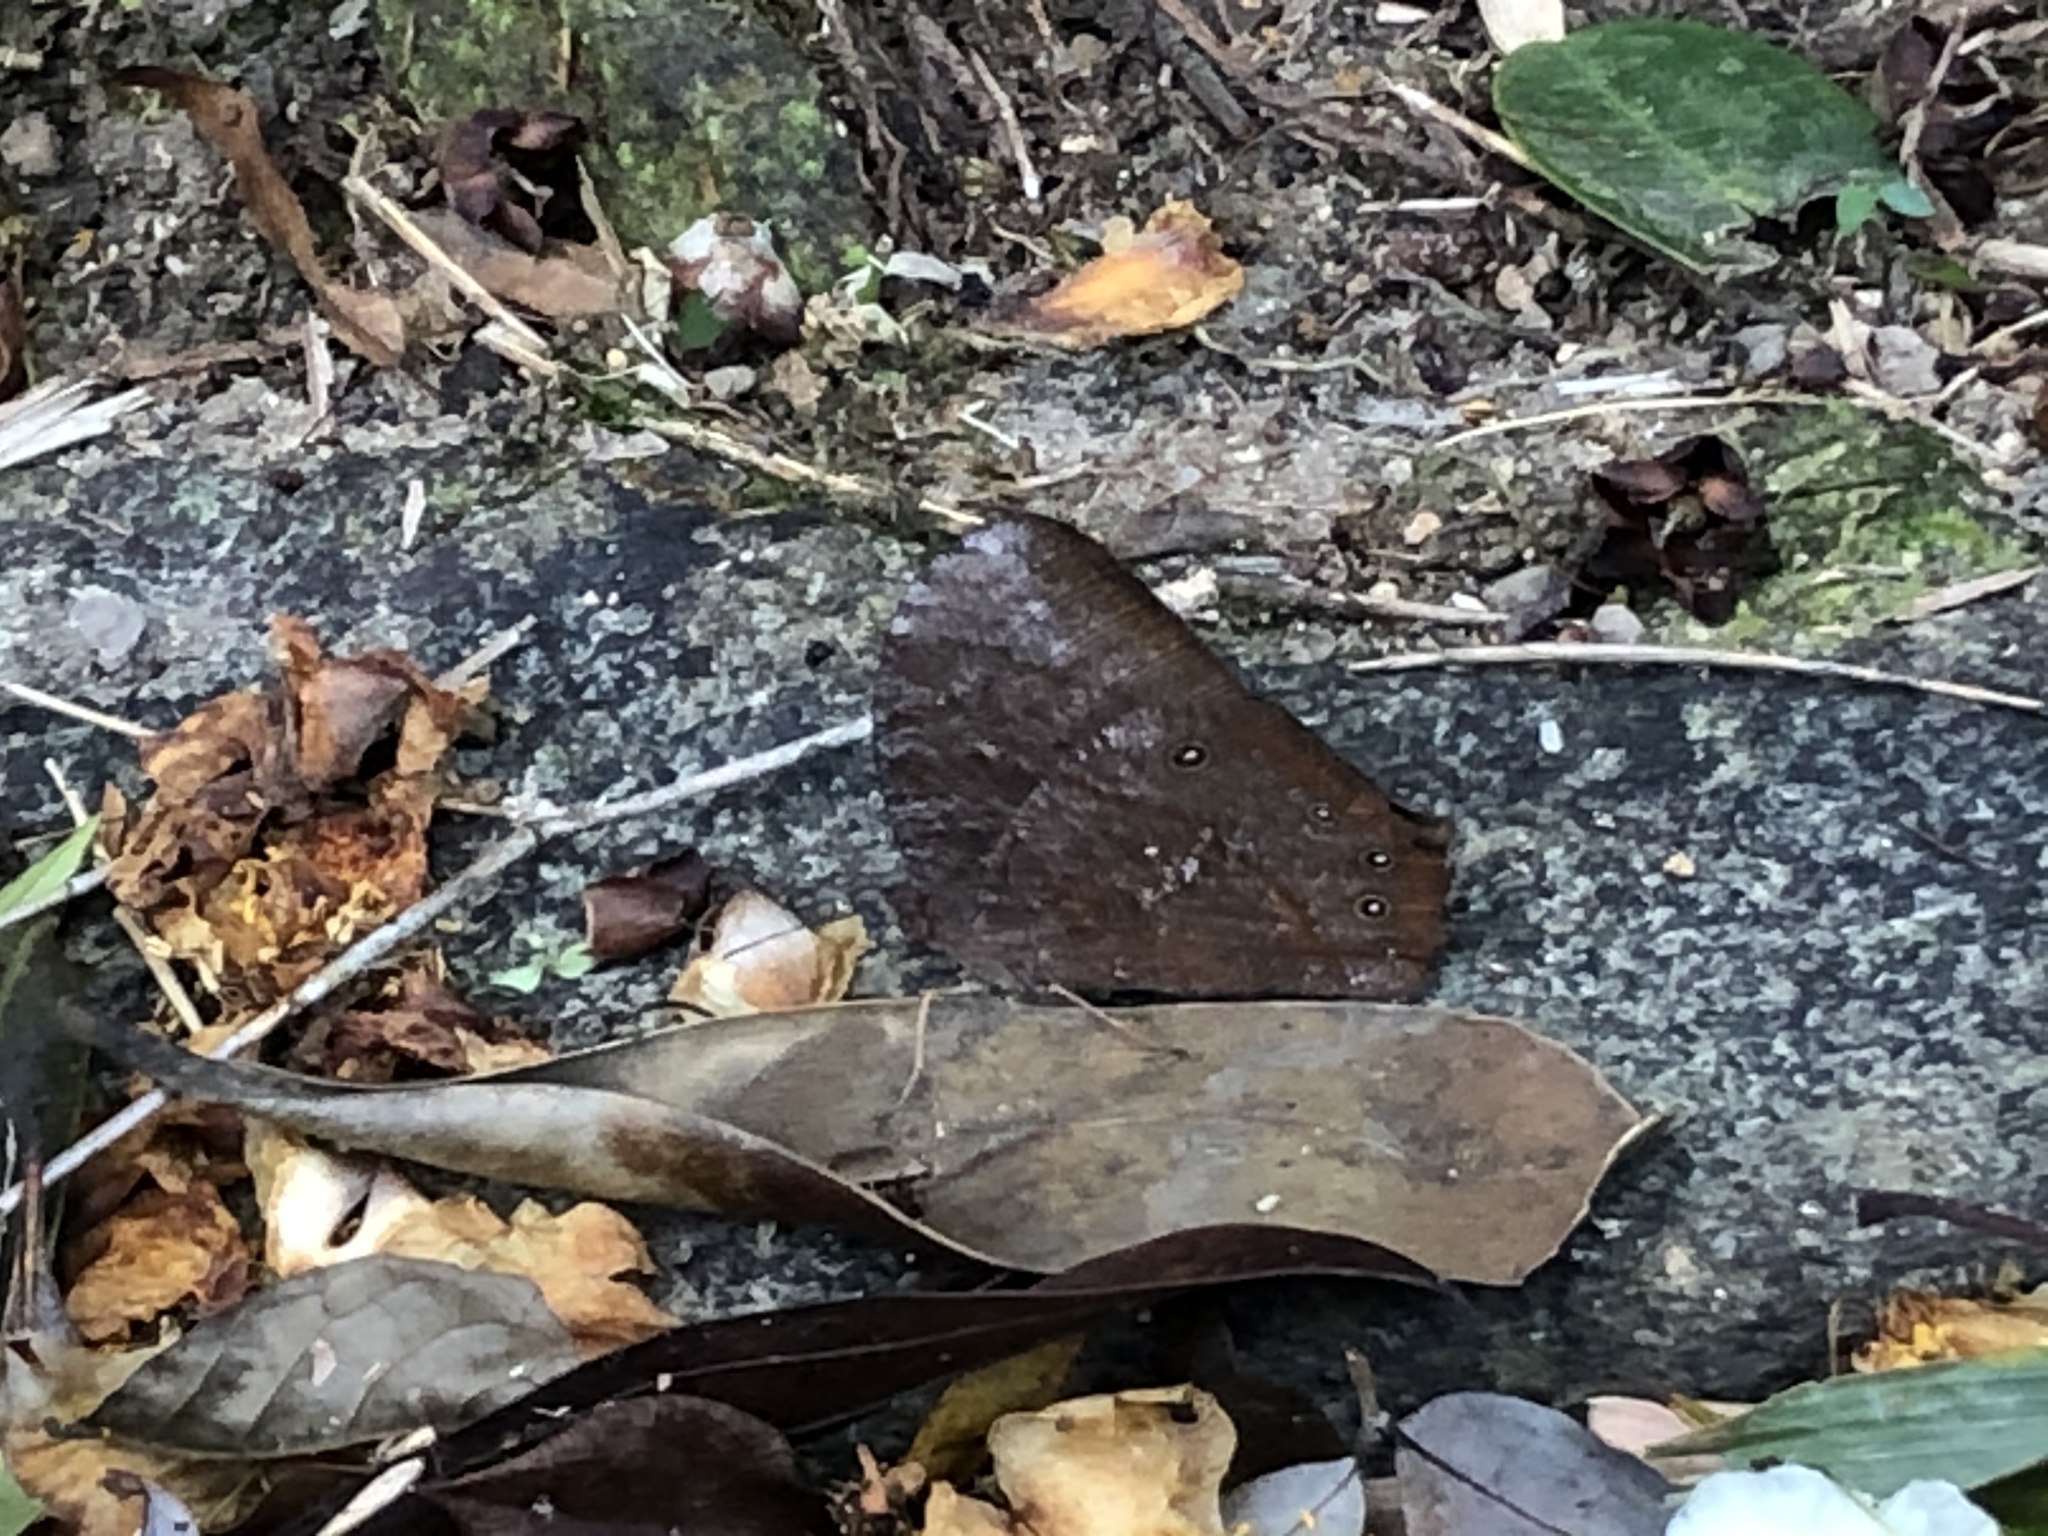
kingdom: Animalia
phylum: Arthropoda
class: Insecta
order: Lepidoptera
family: Nymphalidae
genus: Melanitis
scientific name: Melanitis phedima
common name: Dark evening brown
